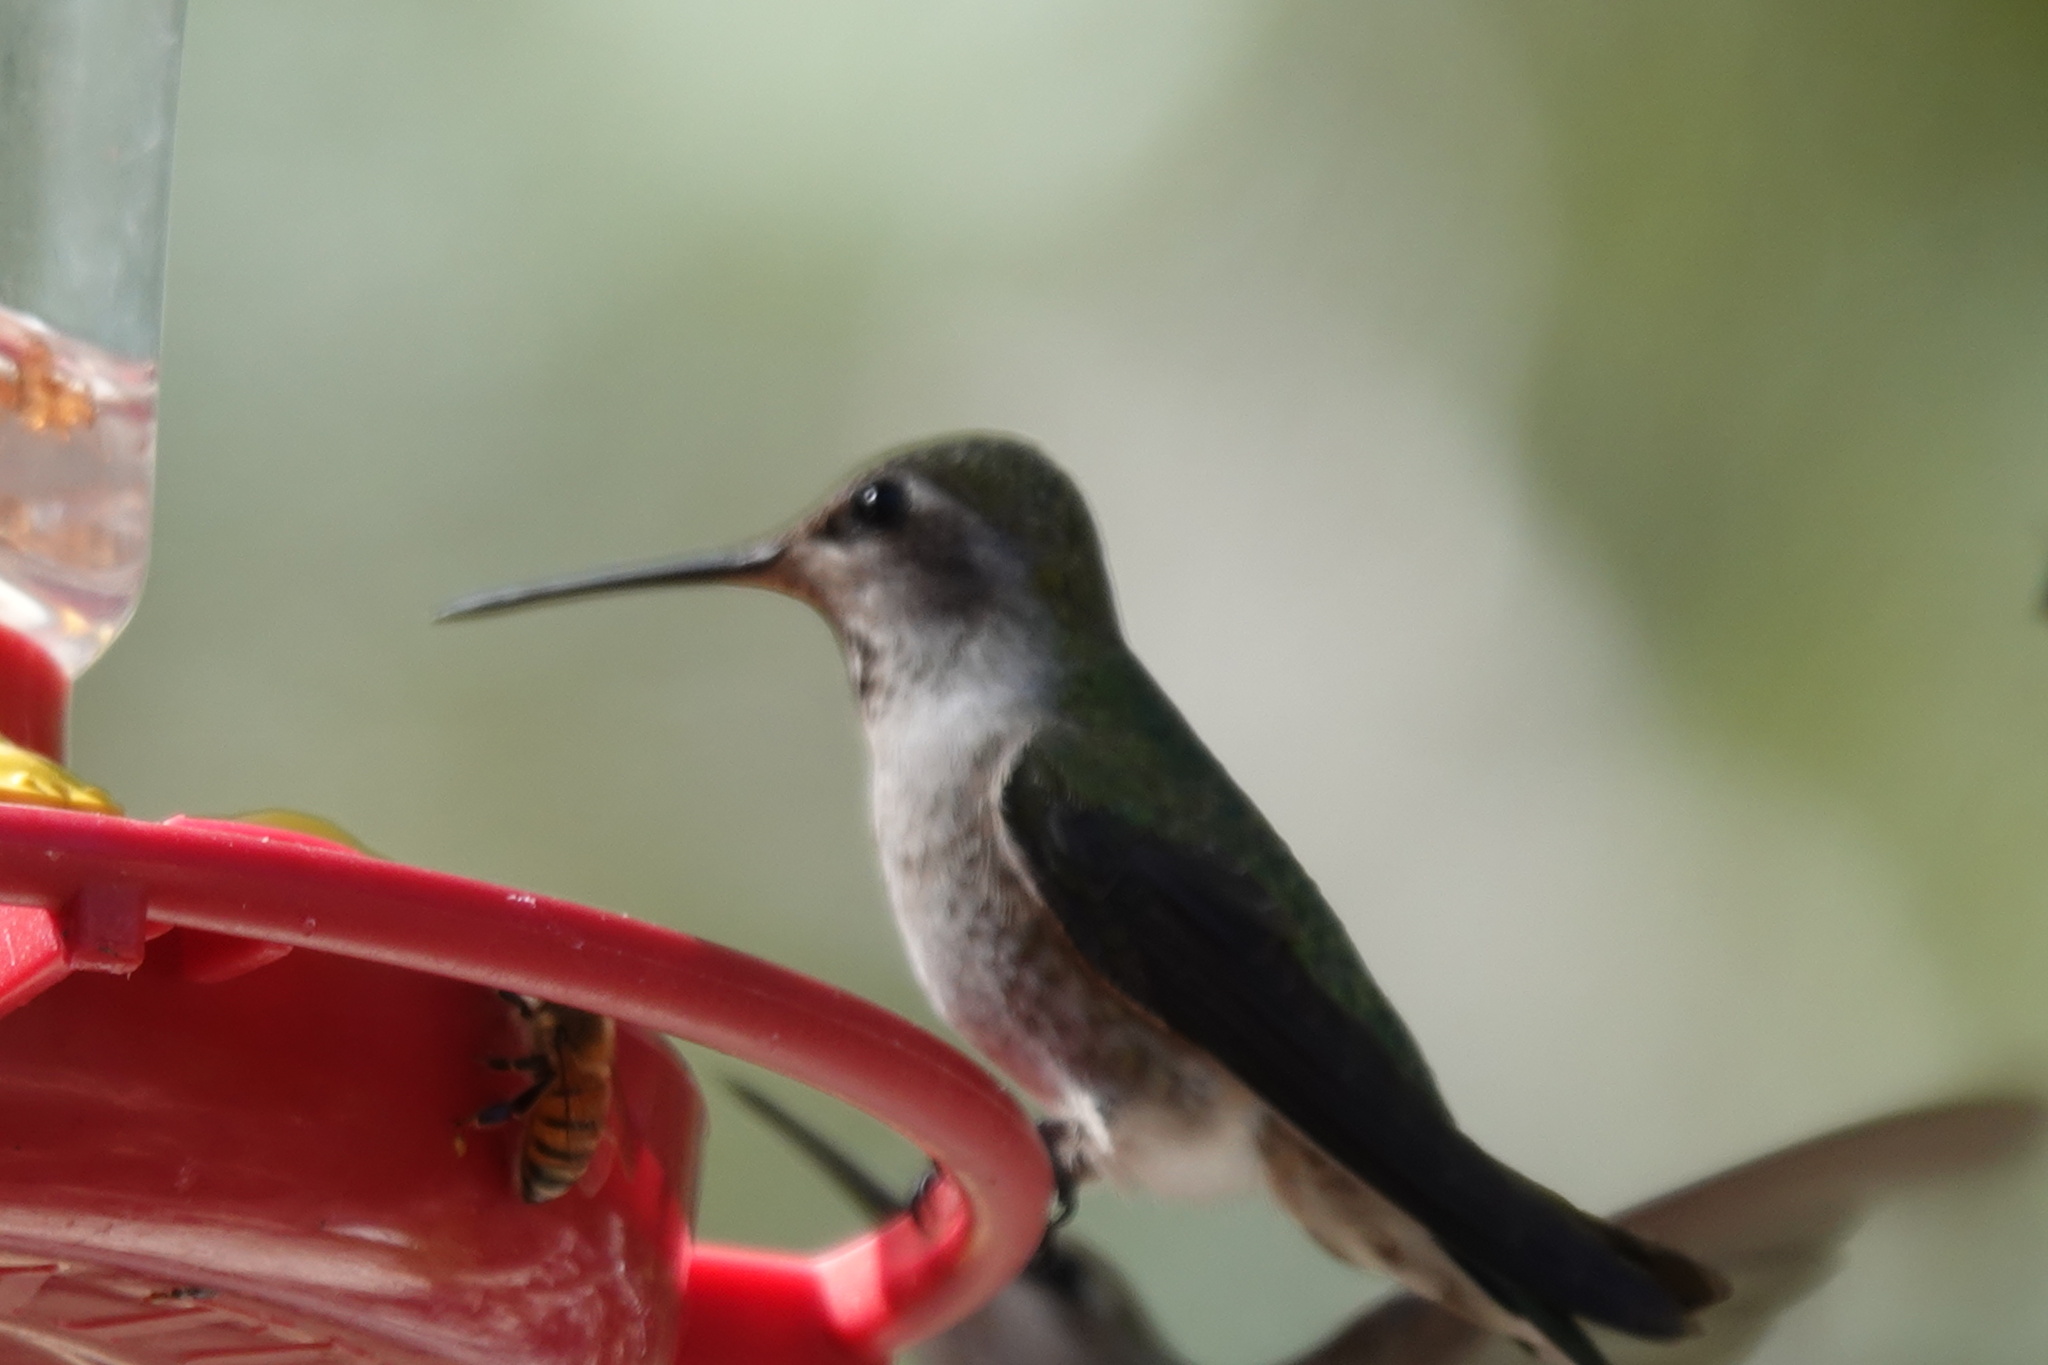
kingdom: Animalia
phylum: Chordata
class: Aves
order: Apodiformes
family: Trochilidae
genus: Calypte
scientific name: Calypte anna
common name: Anna's hummingbird
